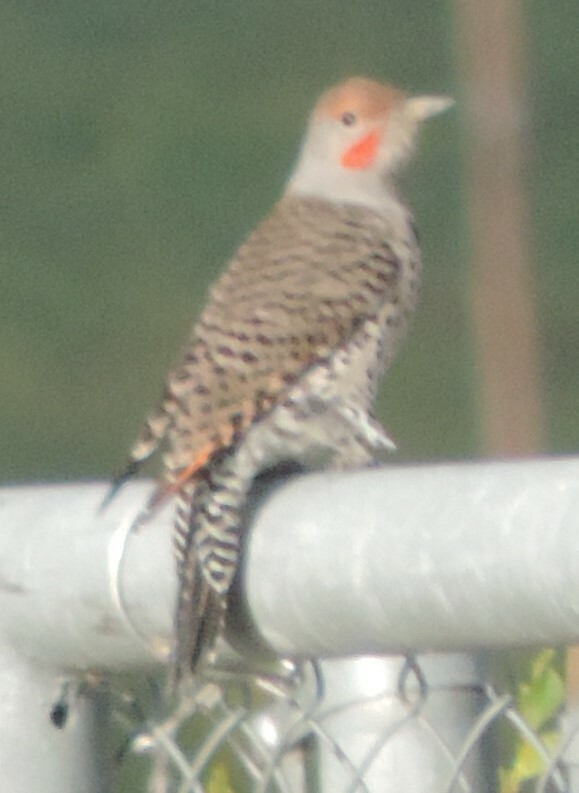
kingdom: Animalia
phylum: Chordata
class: Aves
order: Piciformes
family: Picidae
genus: Colaptes
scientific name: Colaptes auratus
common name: Northern flicker
